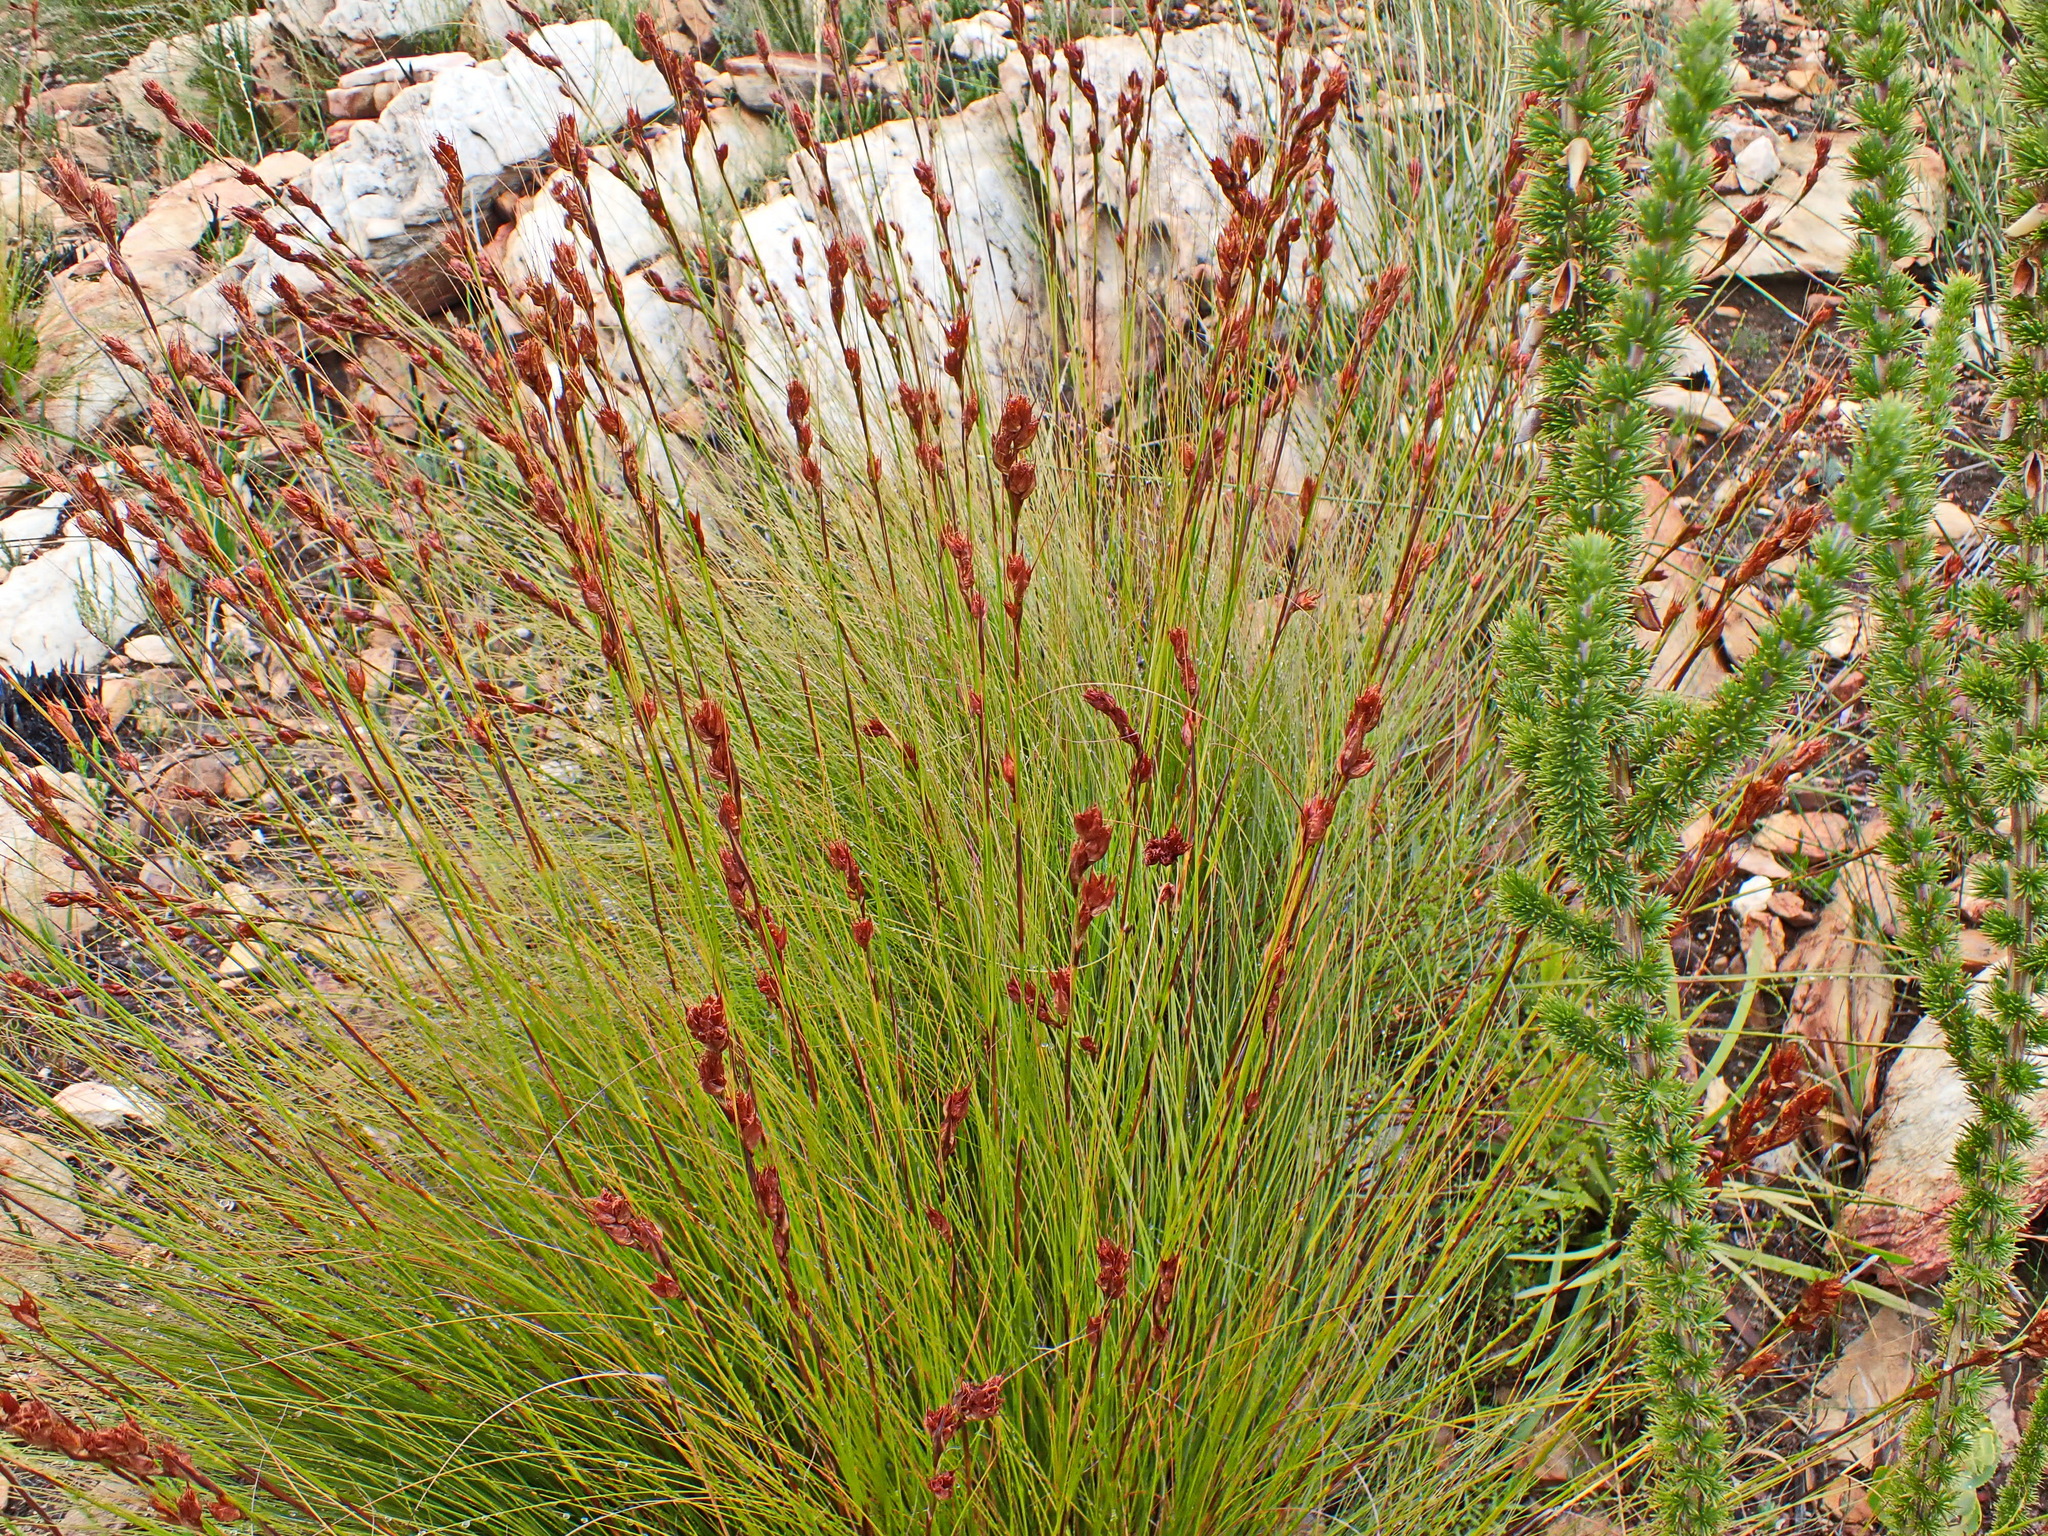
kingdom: Plantae
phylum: Tracheophyta
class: Liliopsida
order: Poales
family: Cyperaceae
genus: Tetraria
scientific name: Tetraria fourcadei
